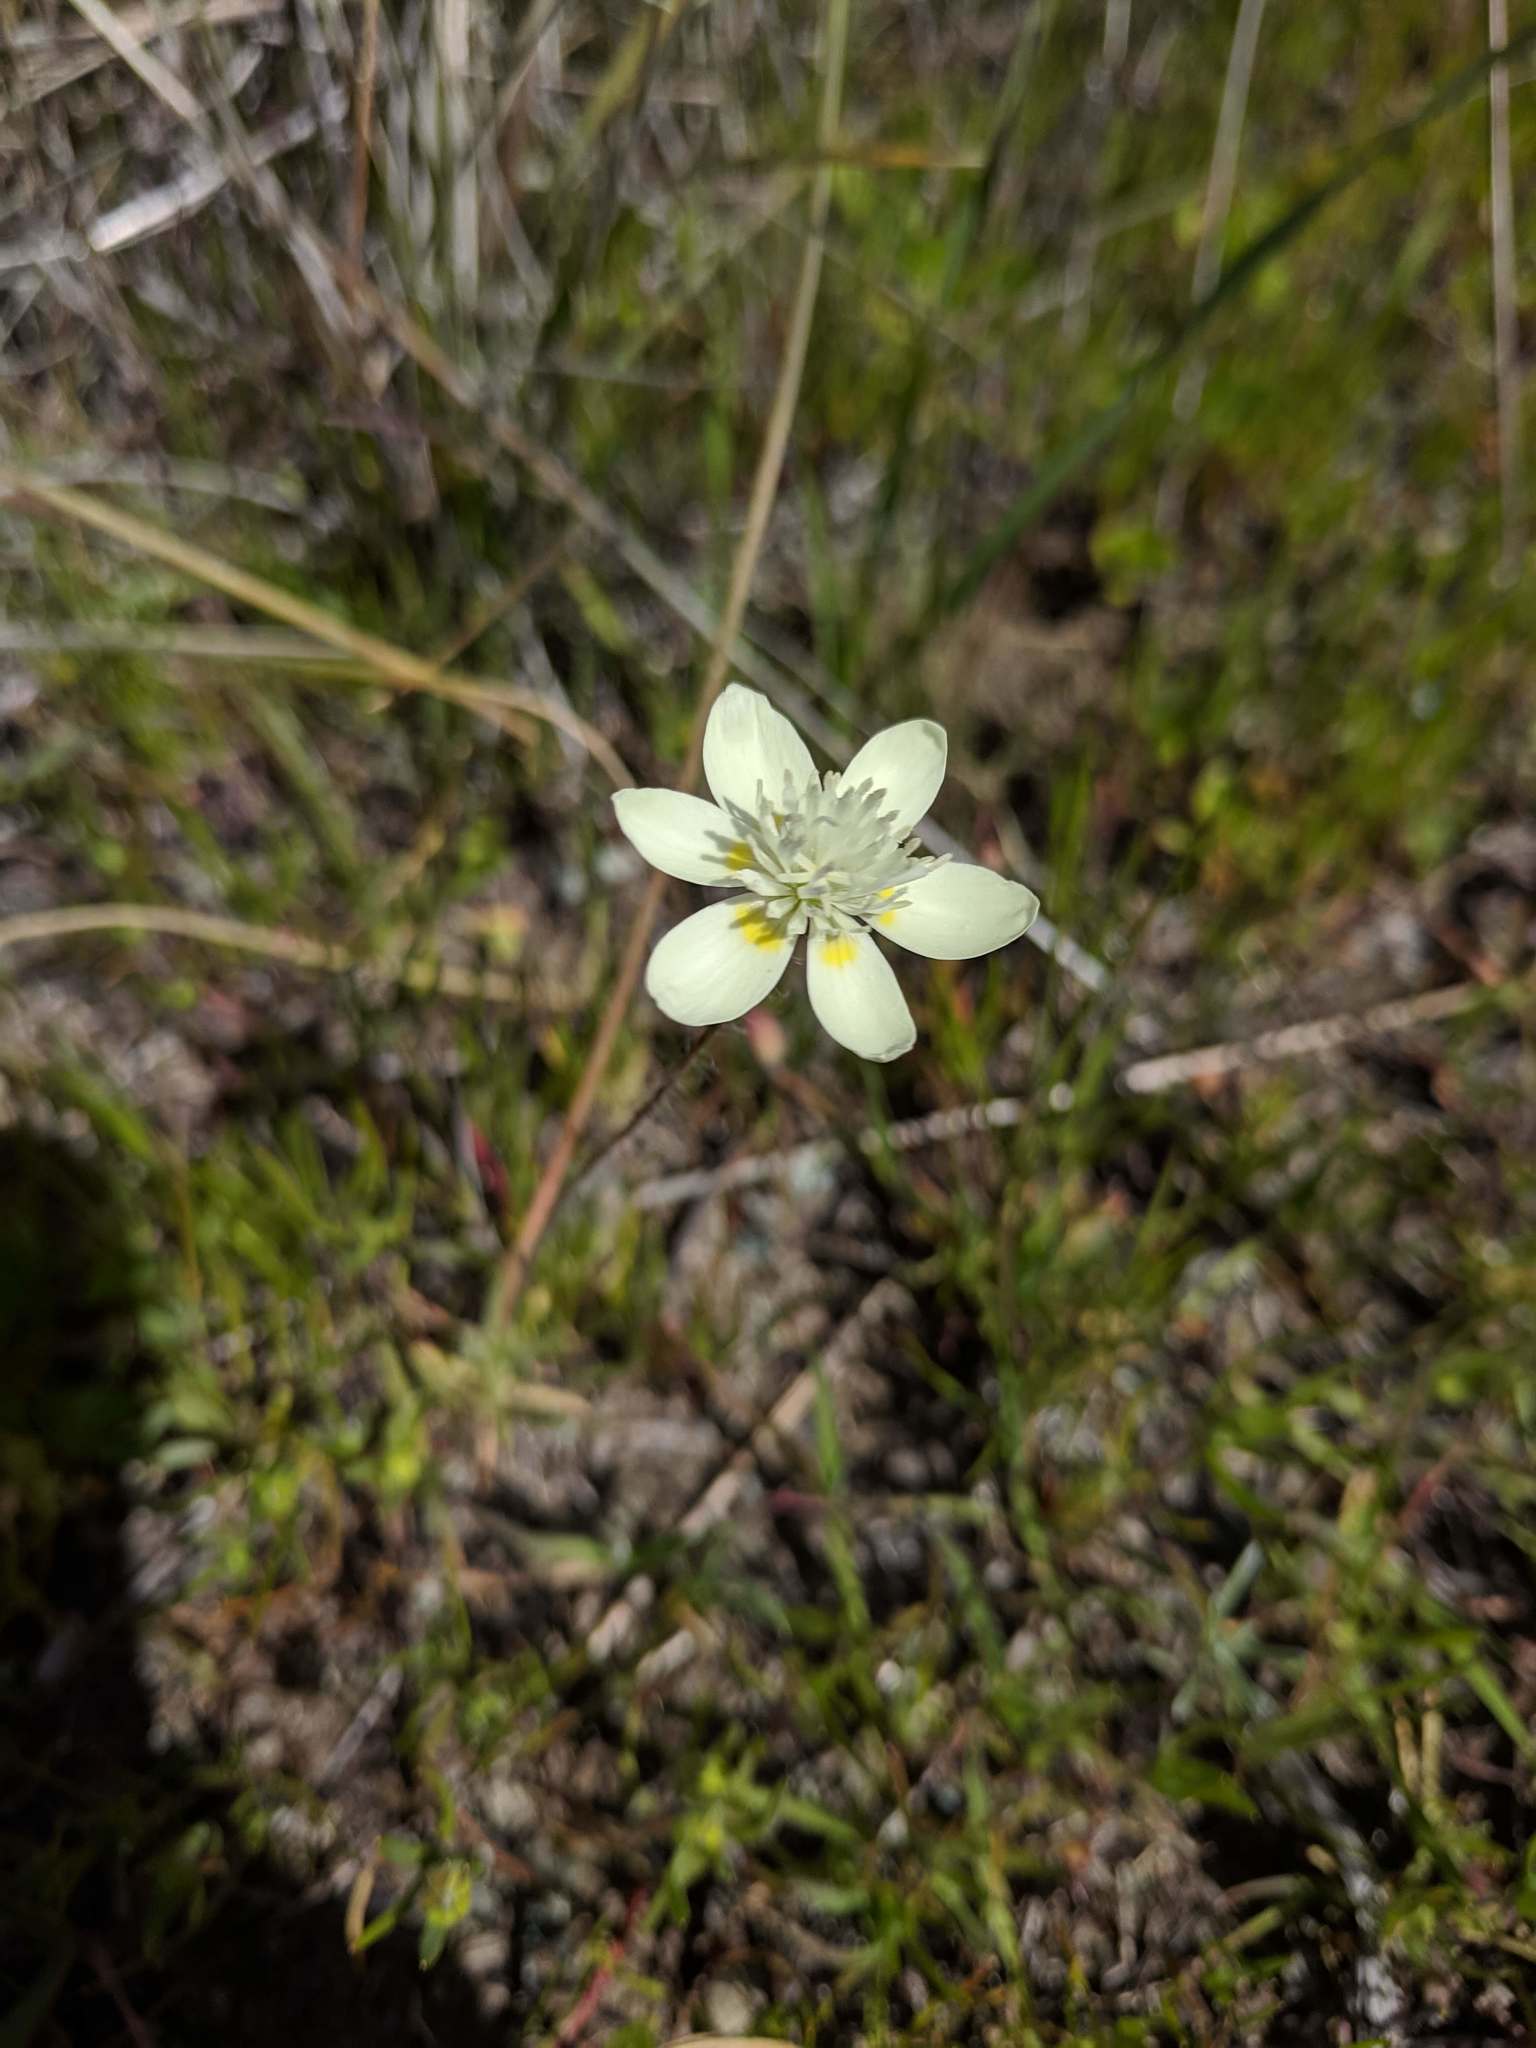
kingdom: Plantae
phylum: Tracheophyta
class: Magnoliopsida
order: Ranunculales
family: Papaveraceae
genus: Platystemon
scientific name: Platystemon californicus
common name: Cream-cups
